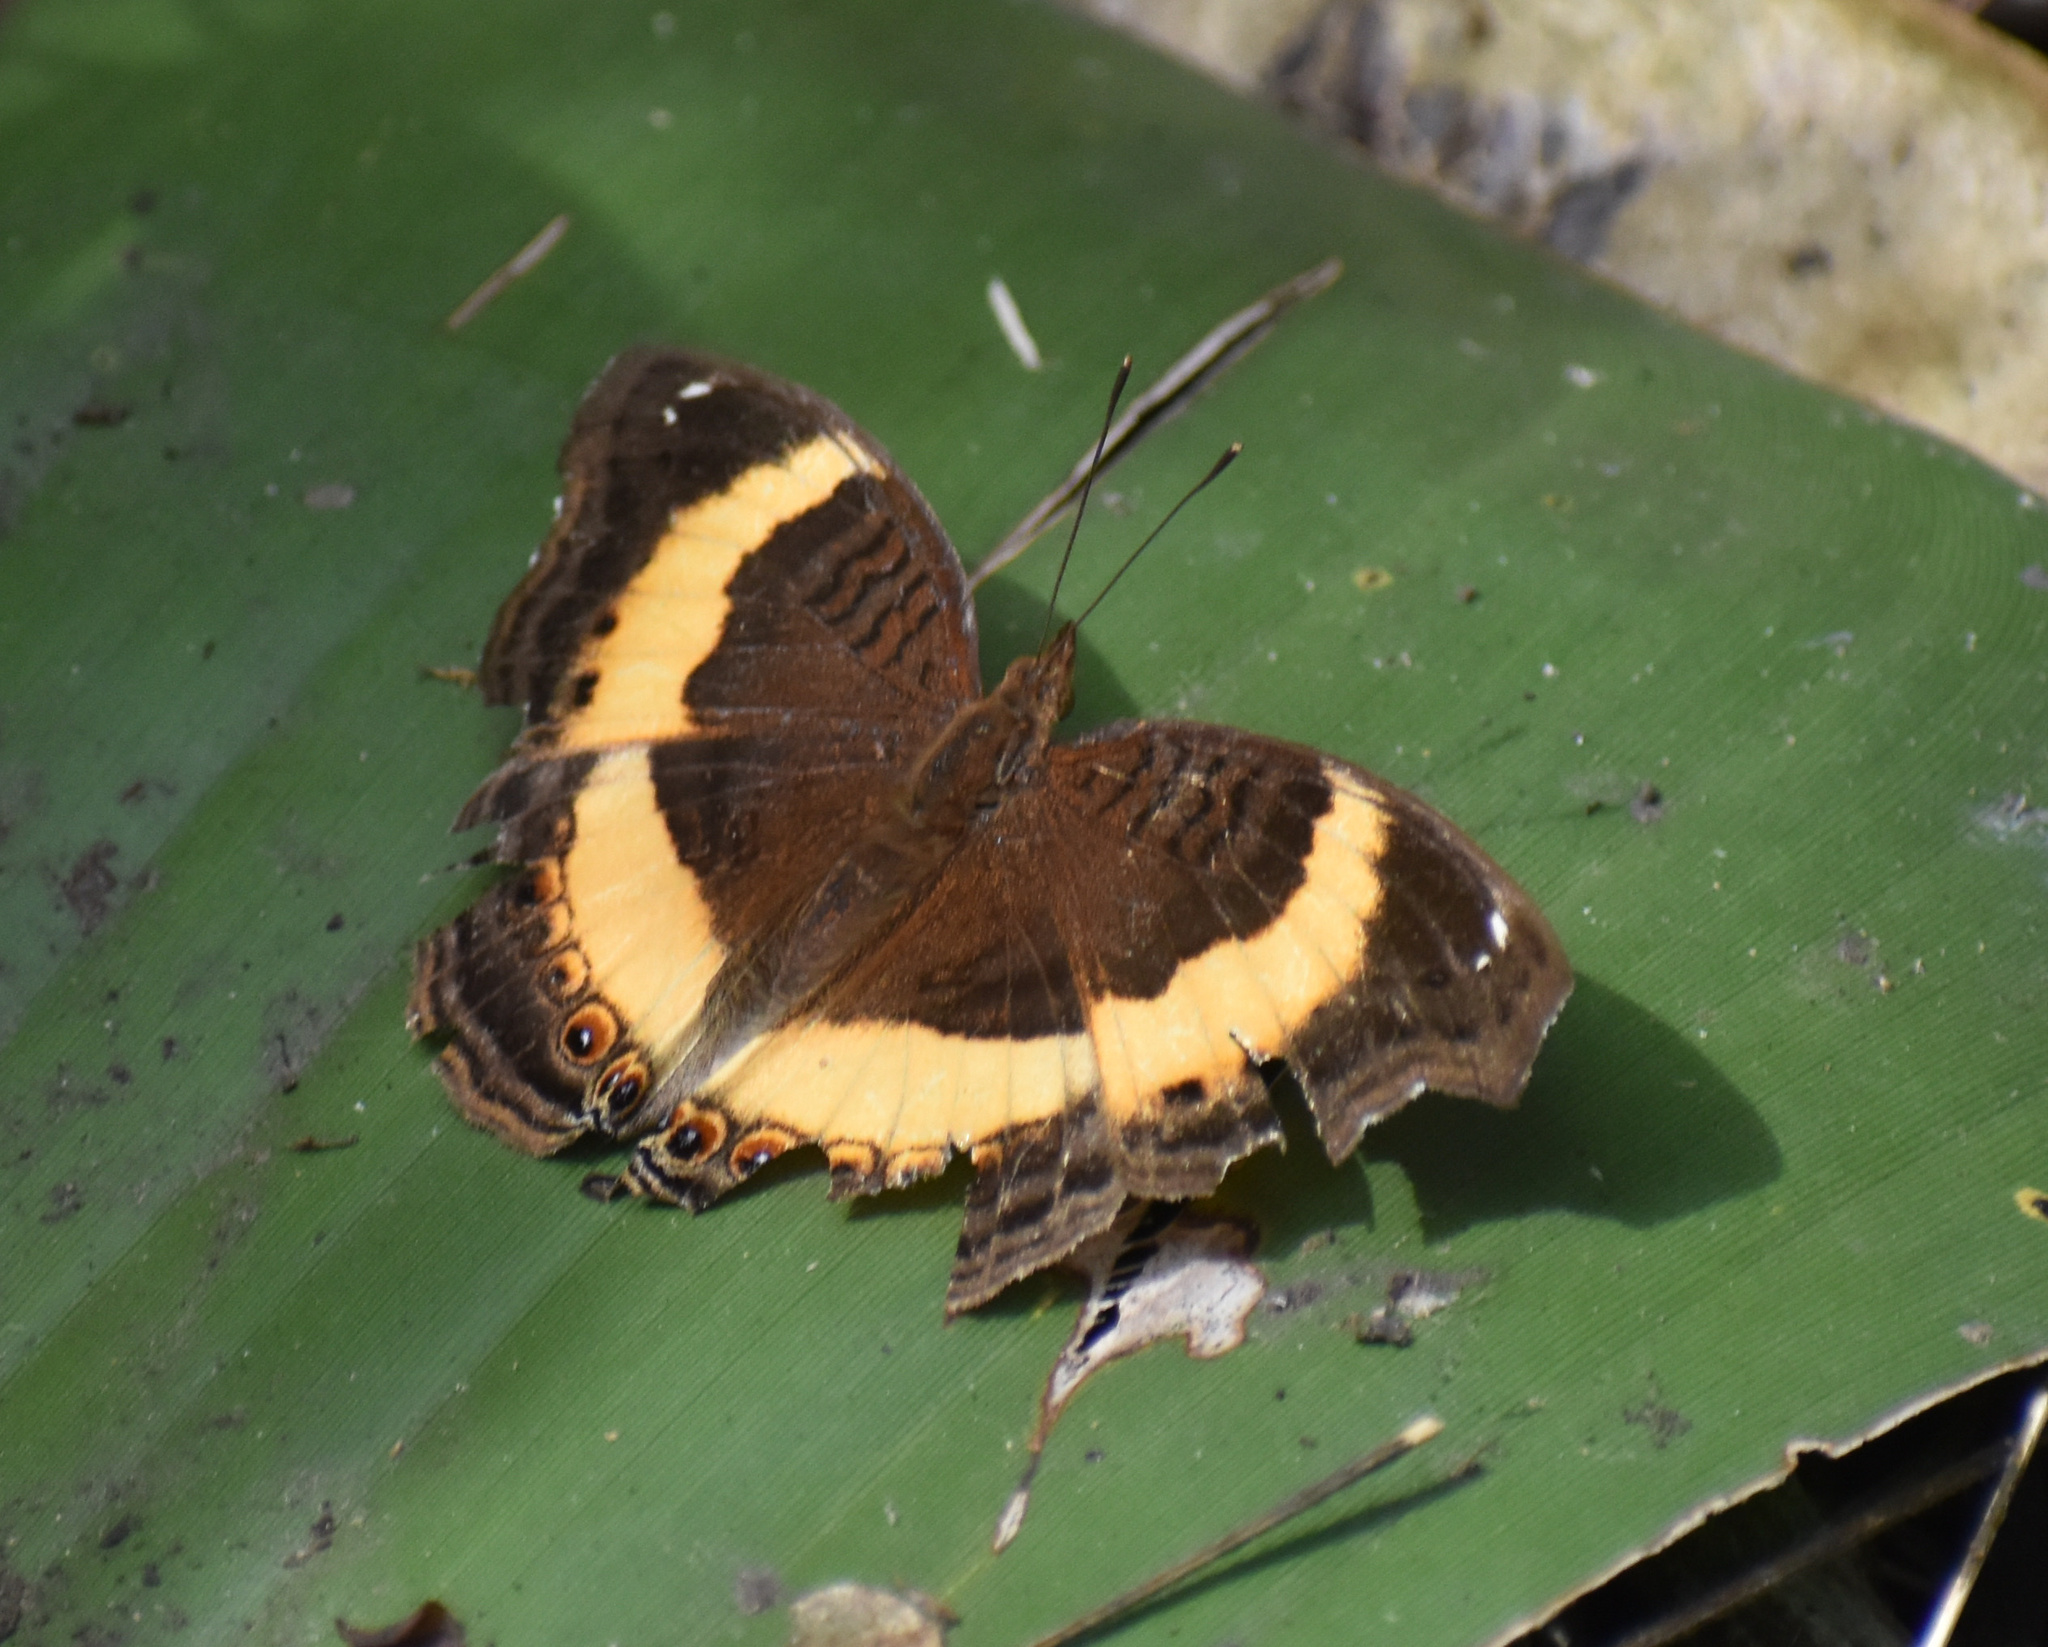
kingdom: Animalia
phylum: Arthropoda
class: Insecta
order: Lepidoptera
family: Nymphalidae
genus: Junonia
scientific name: Junonia terea
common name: Soldier pansy
